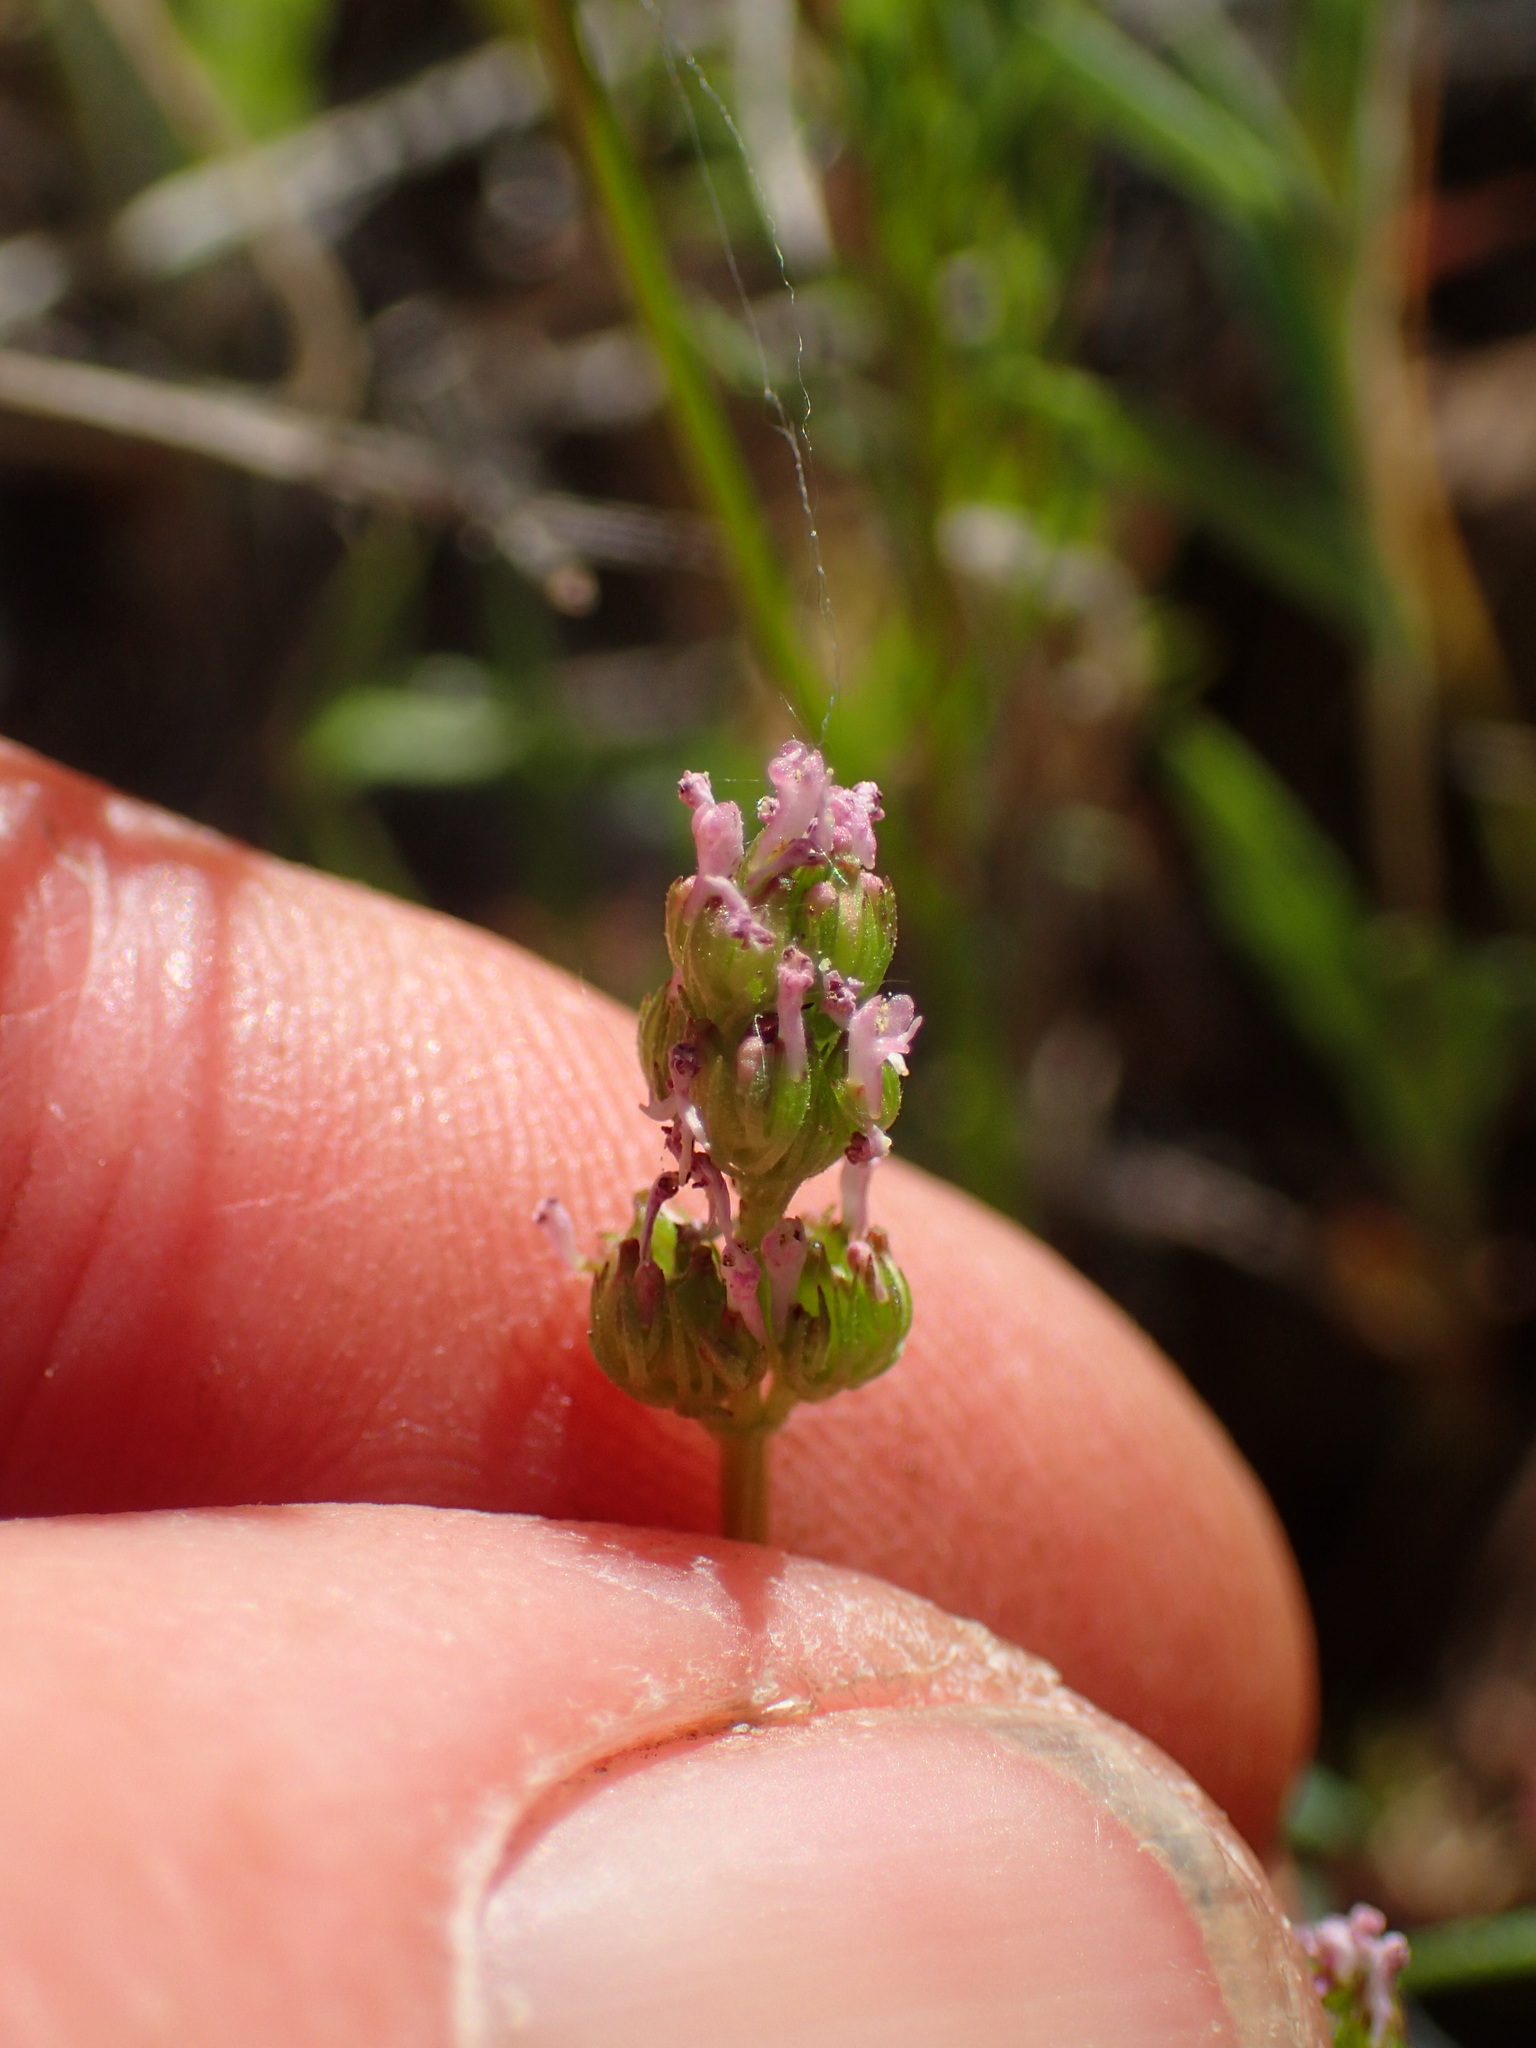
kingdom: Plantae
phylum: Tracheophyta
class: Magnoliopsida
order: Dipsacales
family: Caprifoliaceae
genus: Plectritis
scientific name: Plectritis ciliosa
